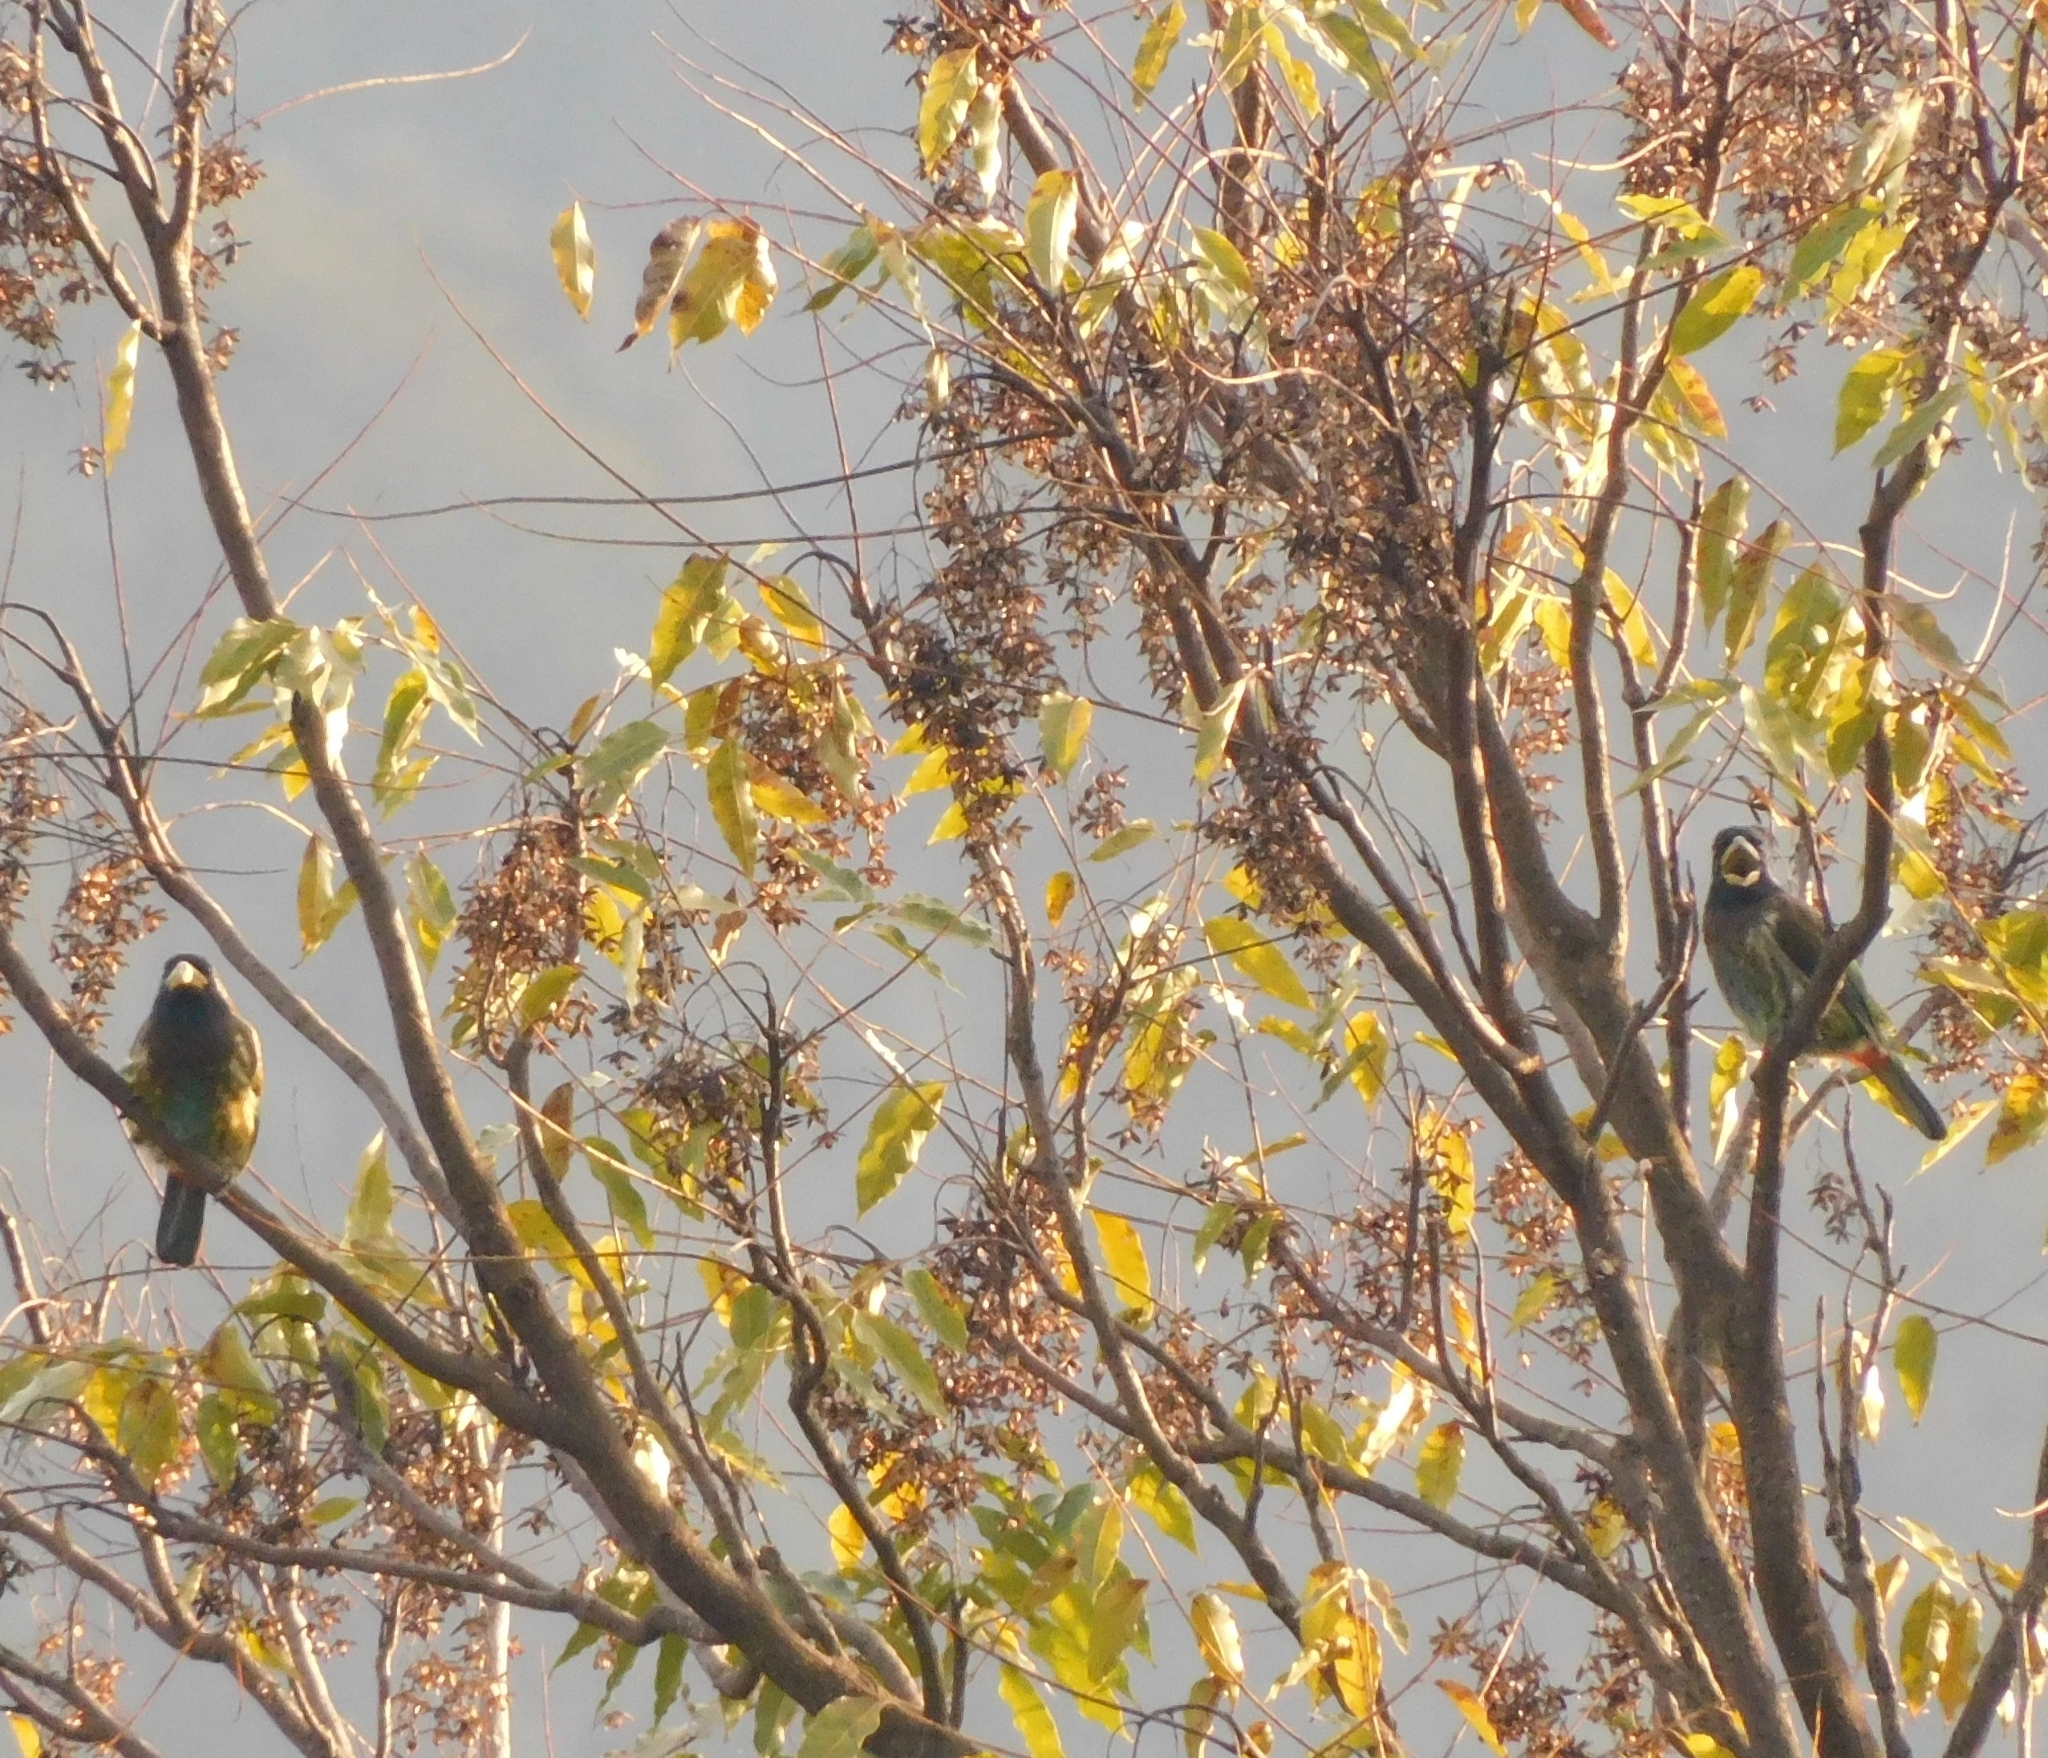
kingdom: Animalia
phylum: Chordata
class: Aves
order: Piciformes
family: Megalaimidae
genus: Psilopogon
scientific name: Psilopogon virens
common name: Great barbet
